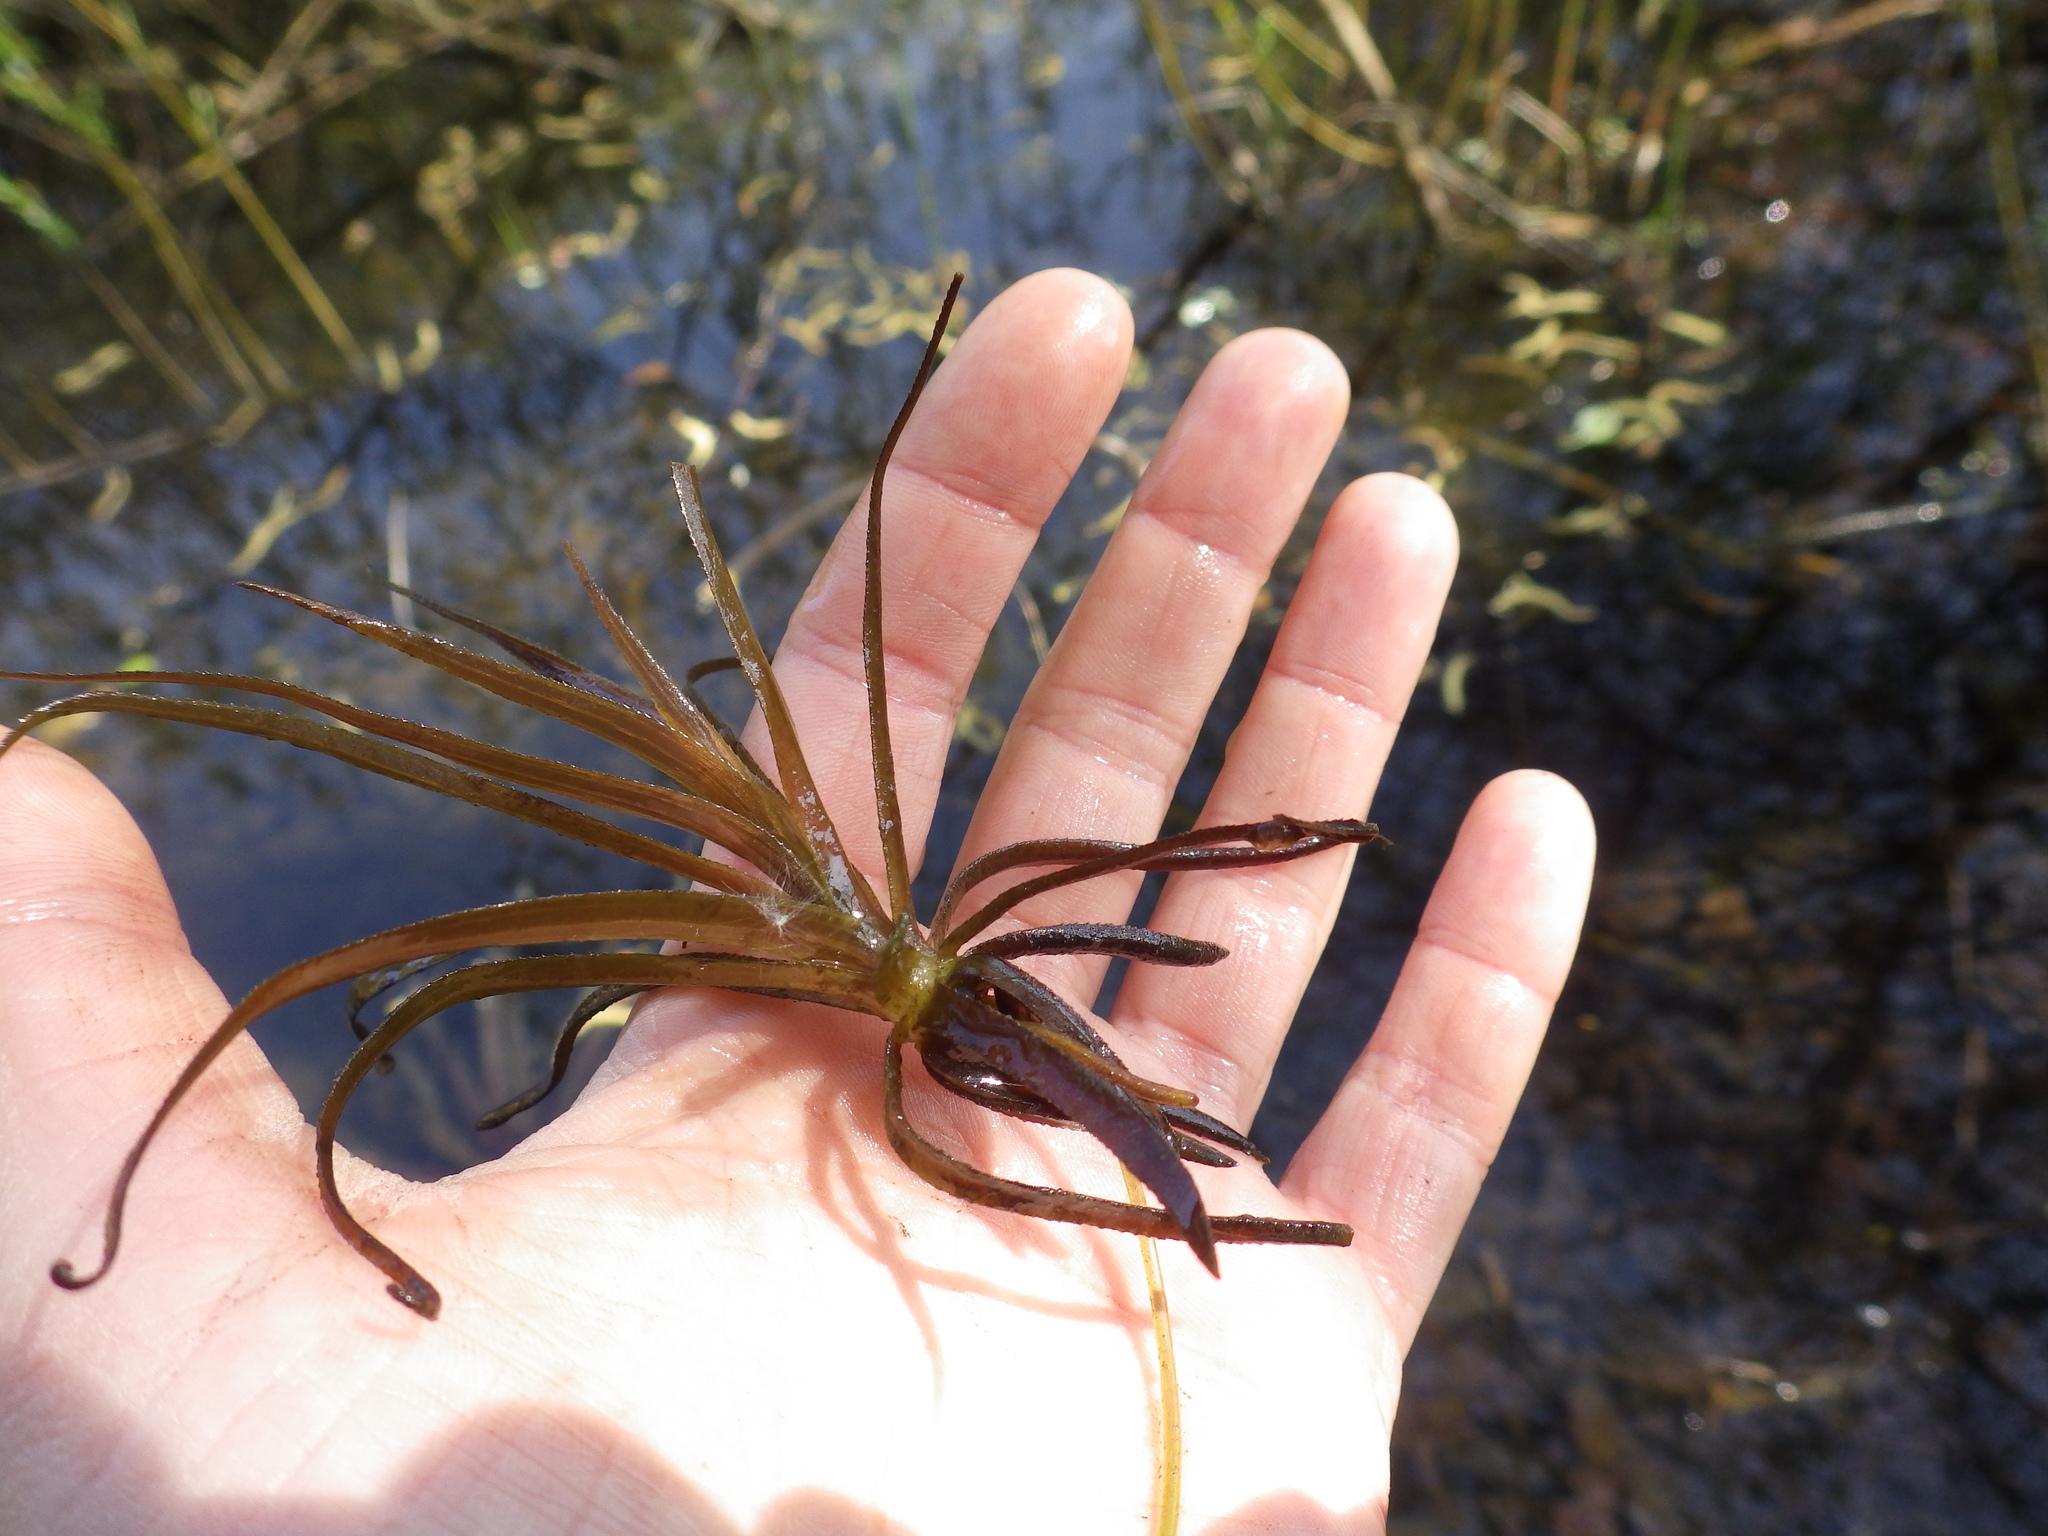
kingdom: Plantae
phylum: Tracheophyta
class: Liliopsida
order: Alismatales
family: Hydrocharitaceae
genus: Stratiotes
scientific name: Stratiotes aloides
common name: Water-soldier
